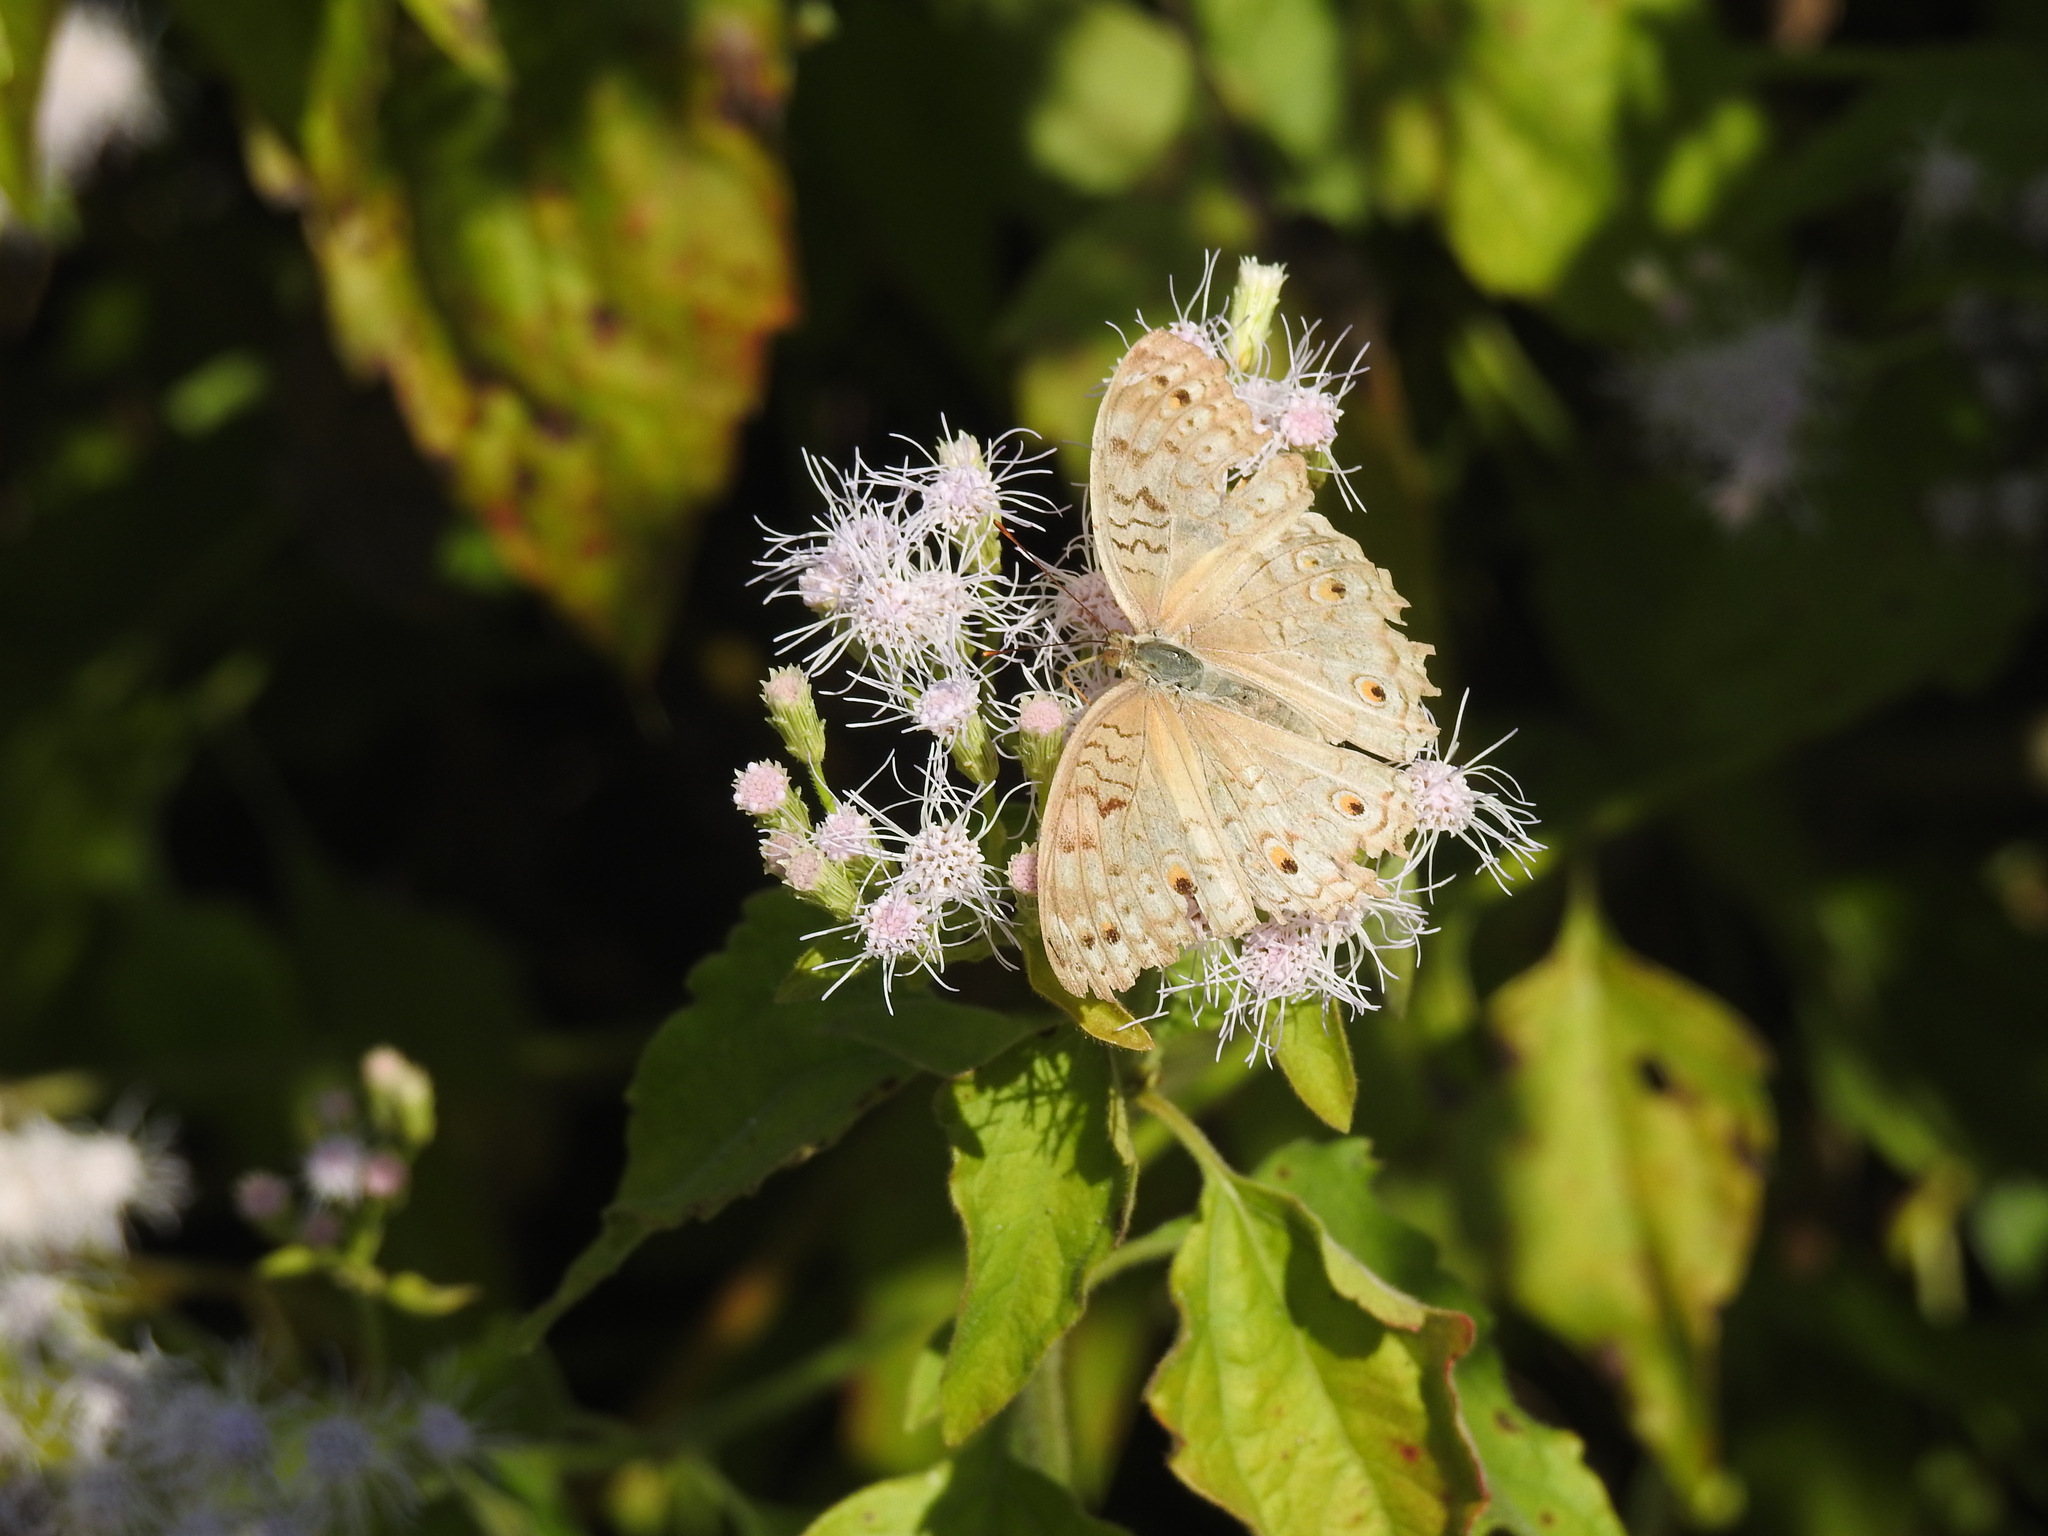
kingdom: Animalia
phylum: Arthropoda
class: Insecta
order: Lepidoptera
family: Nymphalidae
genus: Junonia
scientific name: Junonia atlites
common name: Grey pansy
